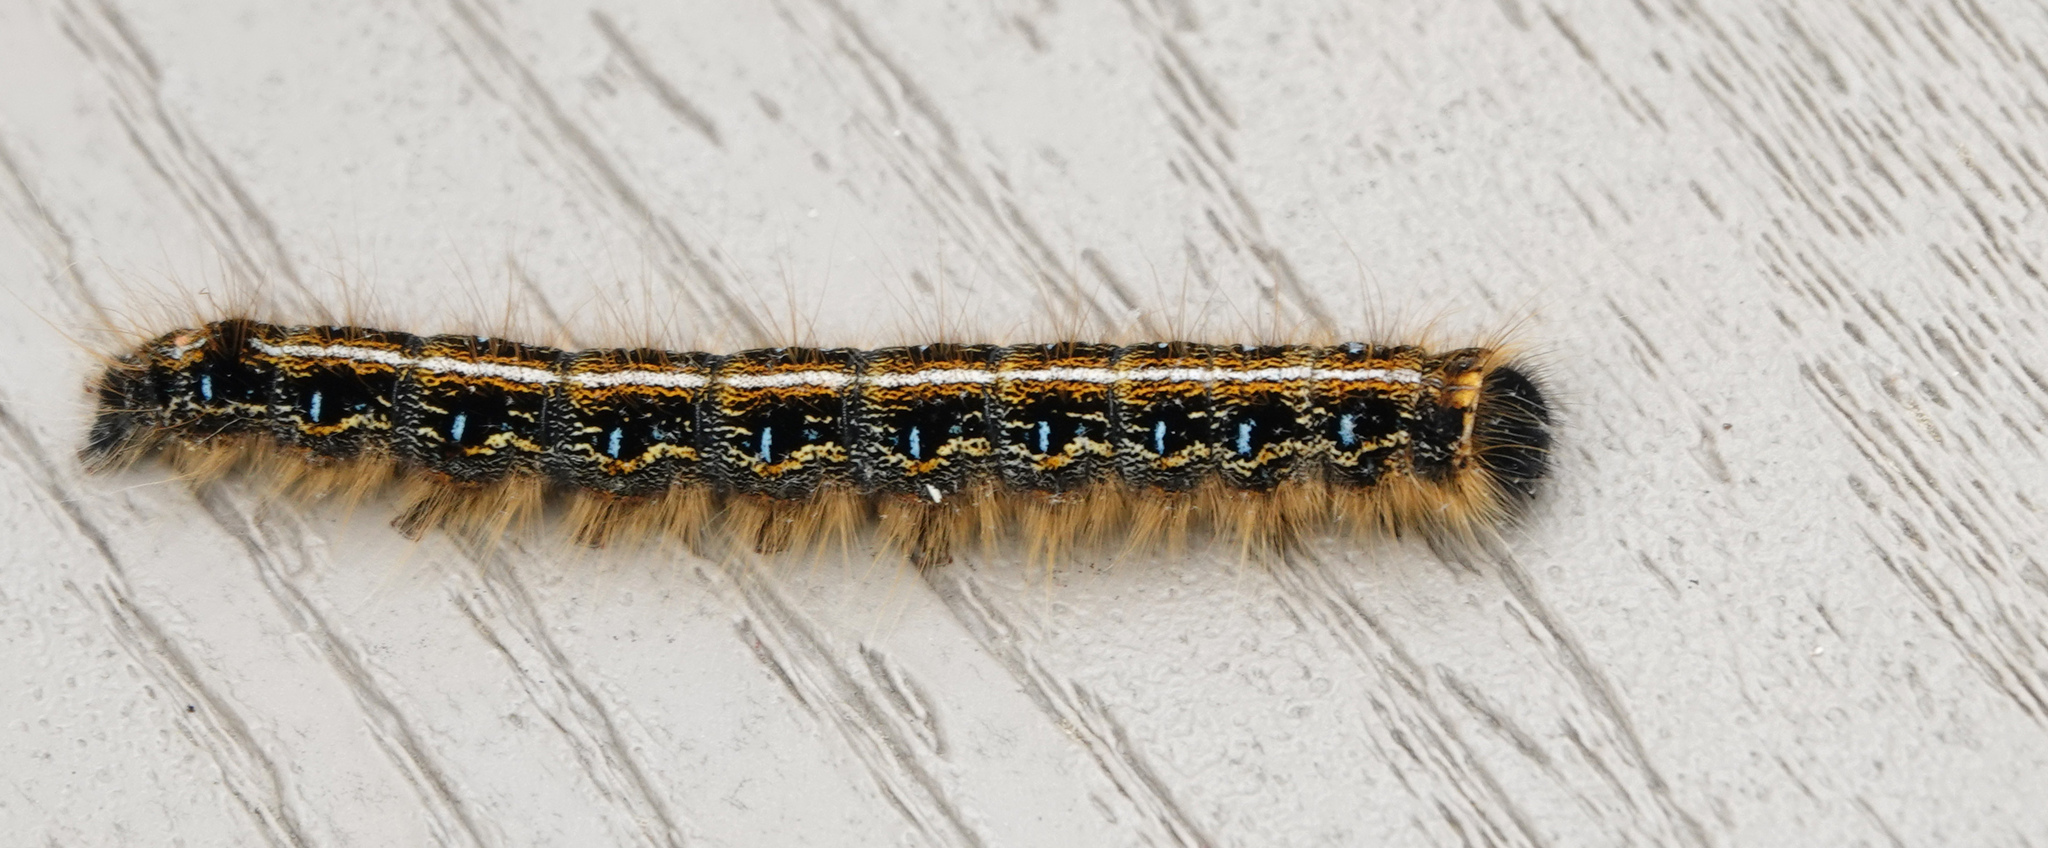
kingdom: Animalia
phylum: Arthropoda
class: Insecta
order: Lepidoptera
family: Lasiocampidae
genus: Malacosoma
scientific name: Malacosoma americana
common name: Eastern tent caterpillar moth
